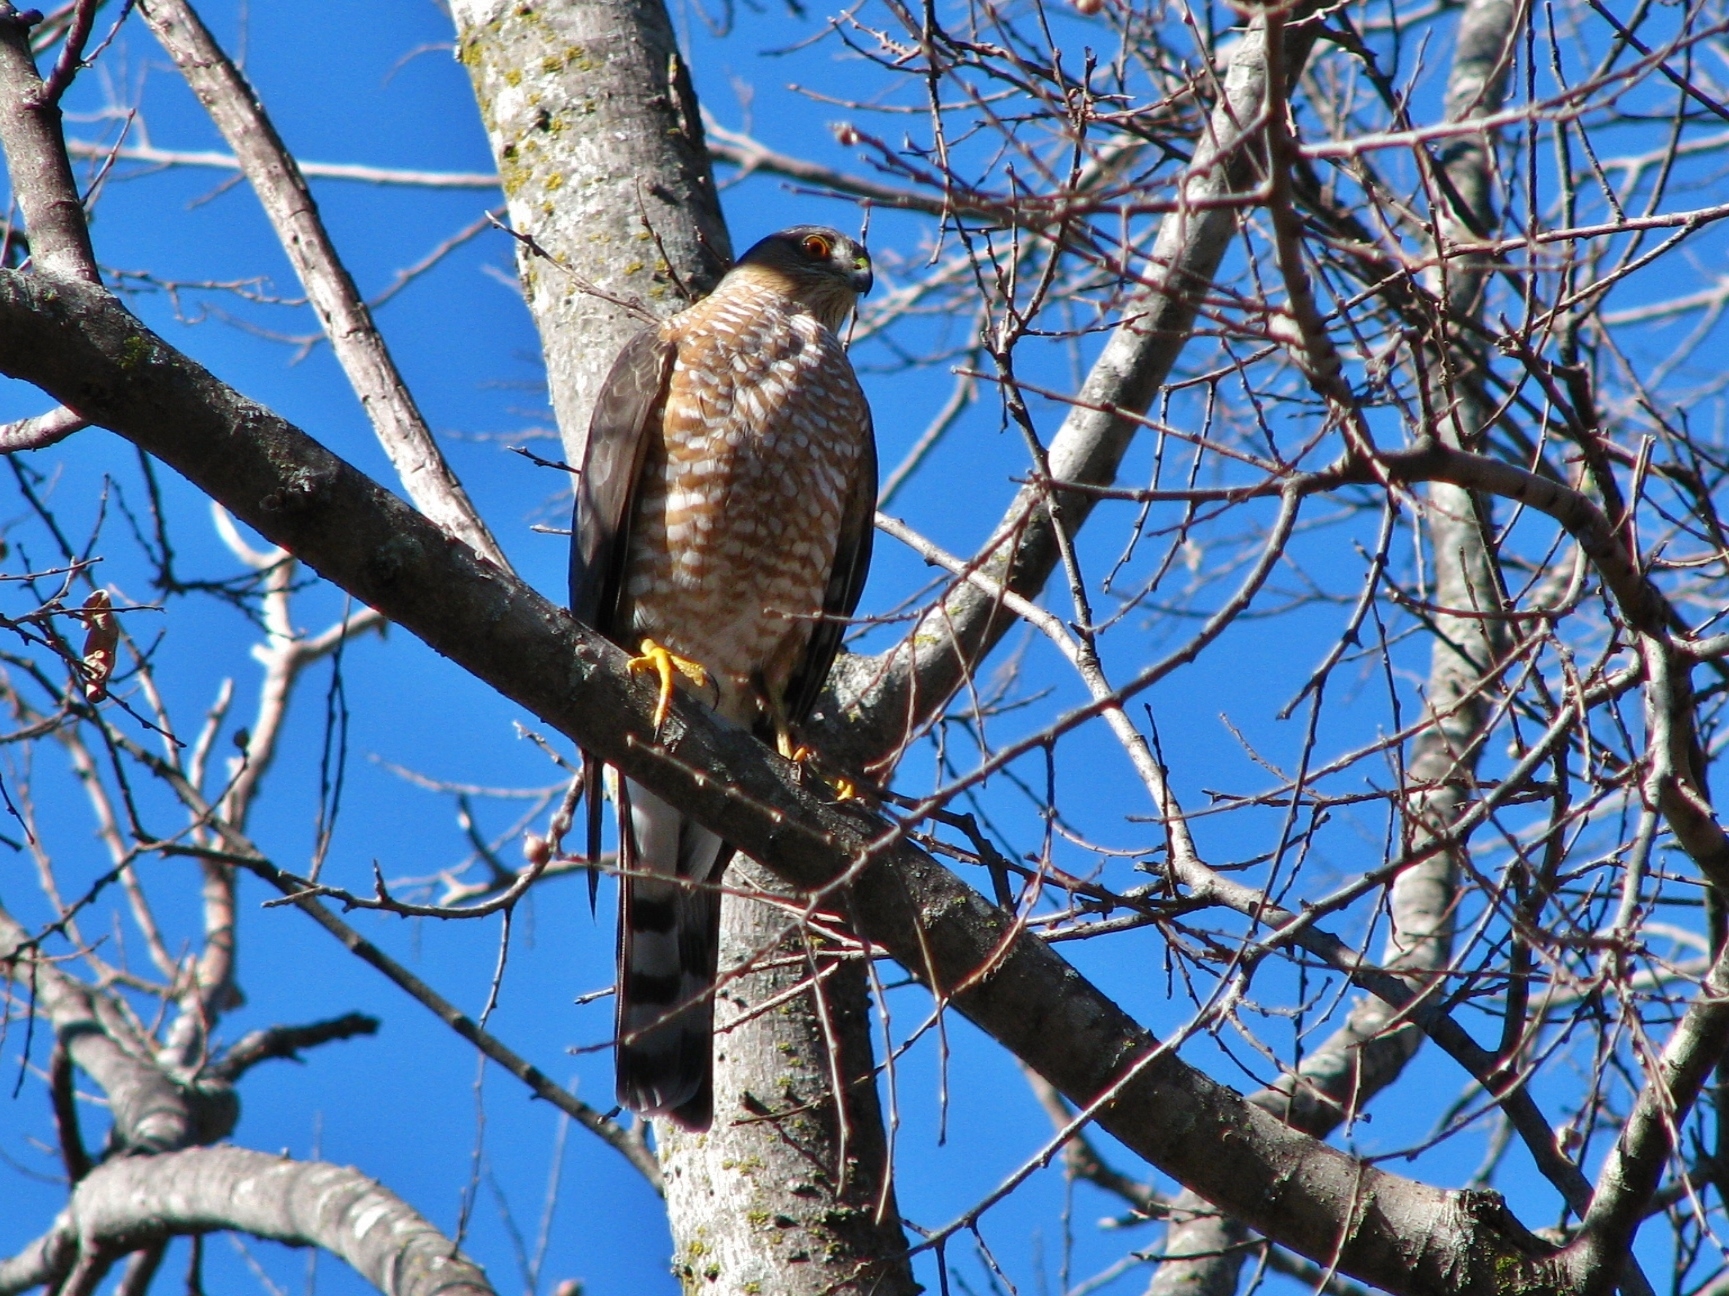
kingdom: Animalia
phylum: Chordata
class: Aves
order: Accipitriformes
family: Accipitridae
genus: Accipiter
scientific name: Accipiter striatus
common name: Sharp-shinned hawk
